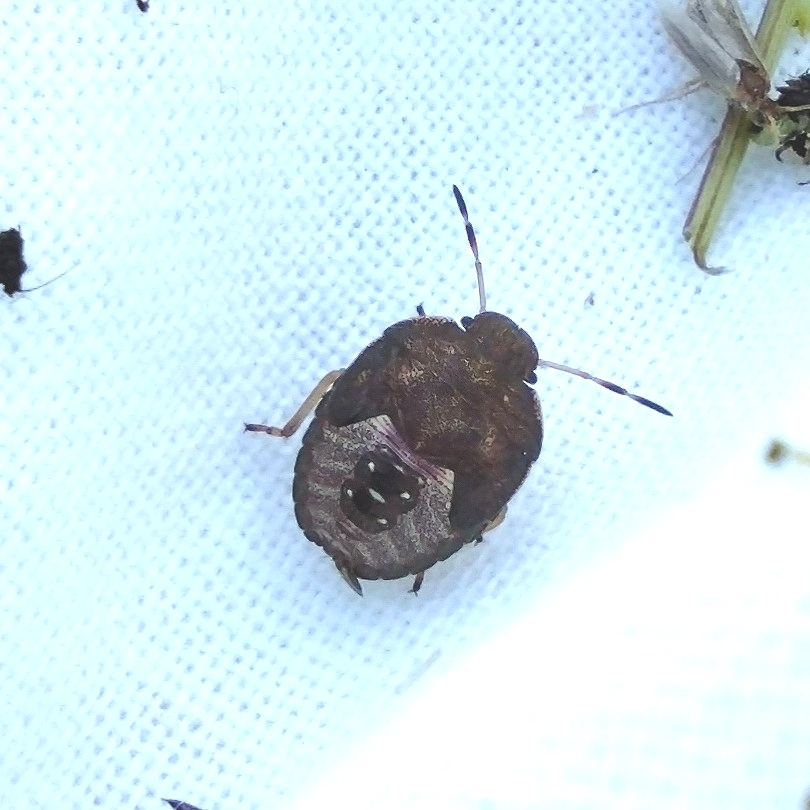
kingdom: Animalia
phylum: Arthropoda
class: Insecta
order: Hemiptera
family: Pentatomidae
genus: Holcostethus
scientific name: Holcostethus strictus
